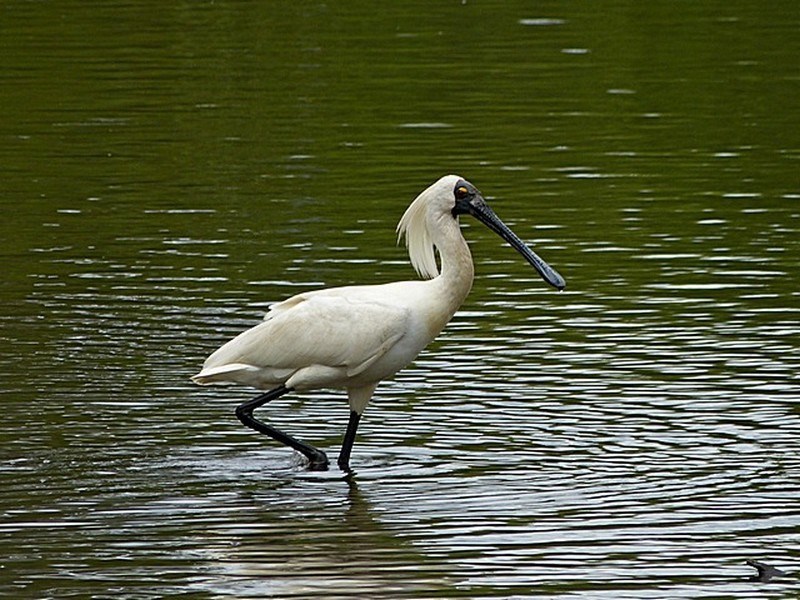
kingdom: Animalia
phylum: Chordata
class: Aves
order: Pelecaniformes
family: Threskiornithidae
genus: Platalea
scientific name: Platalea regia
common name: Royal spoonbill
